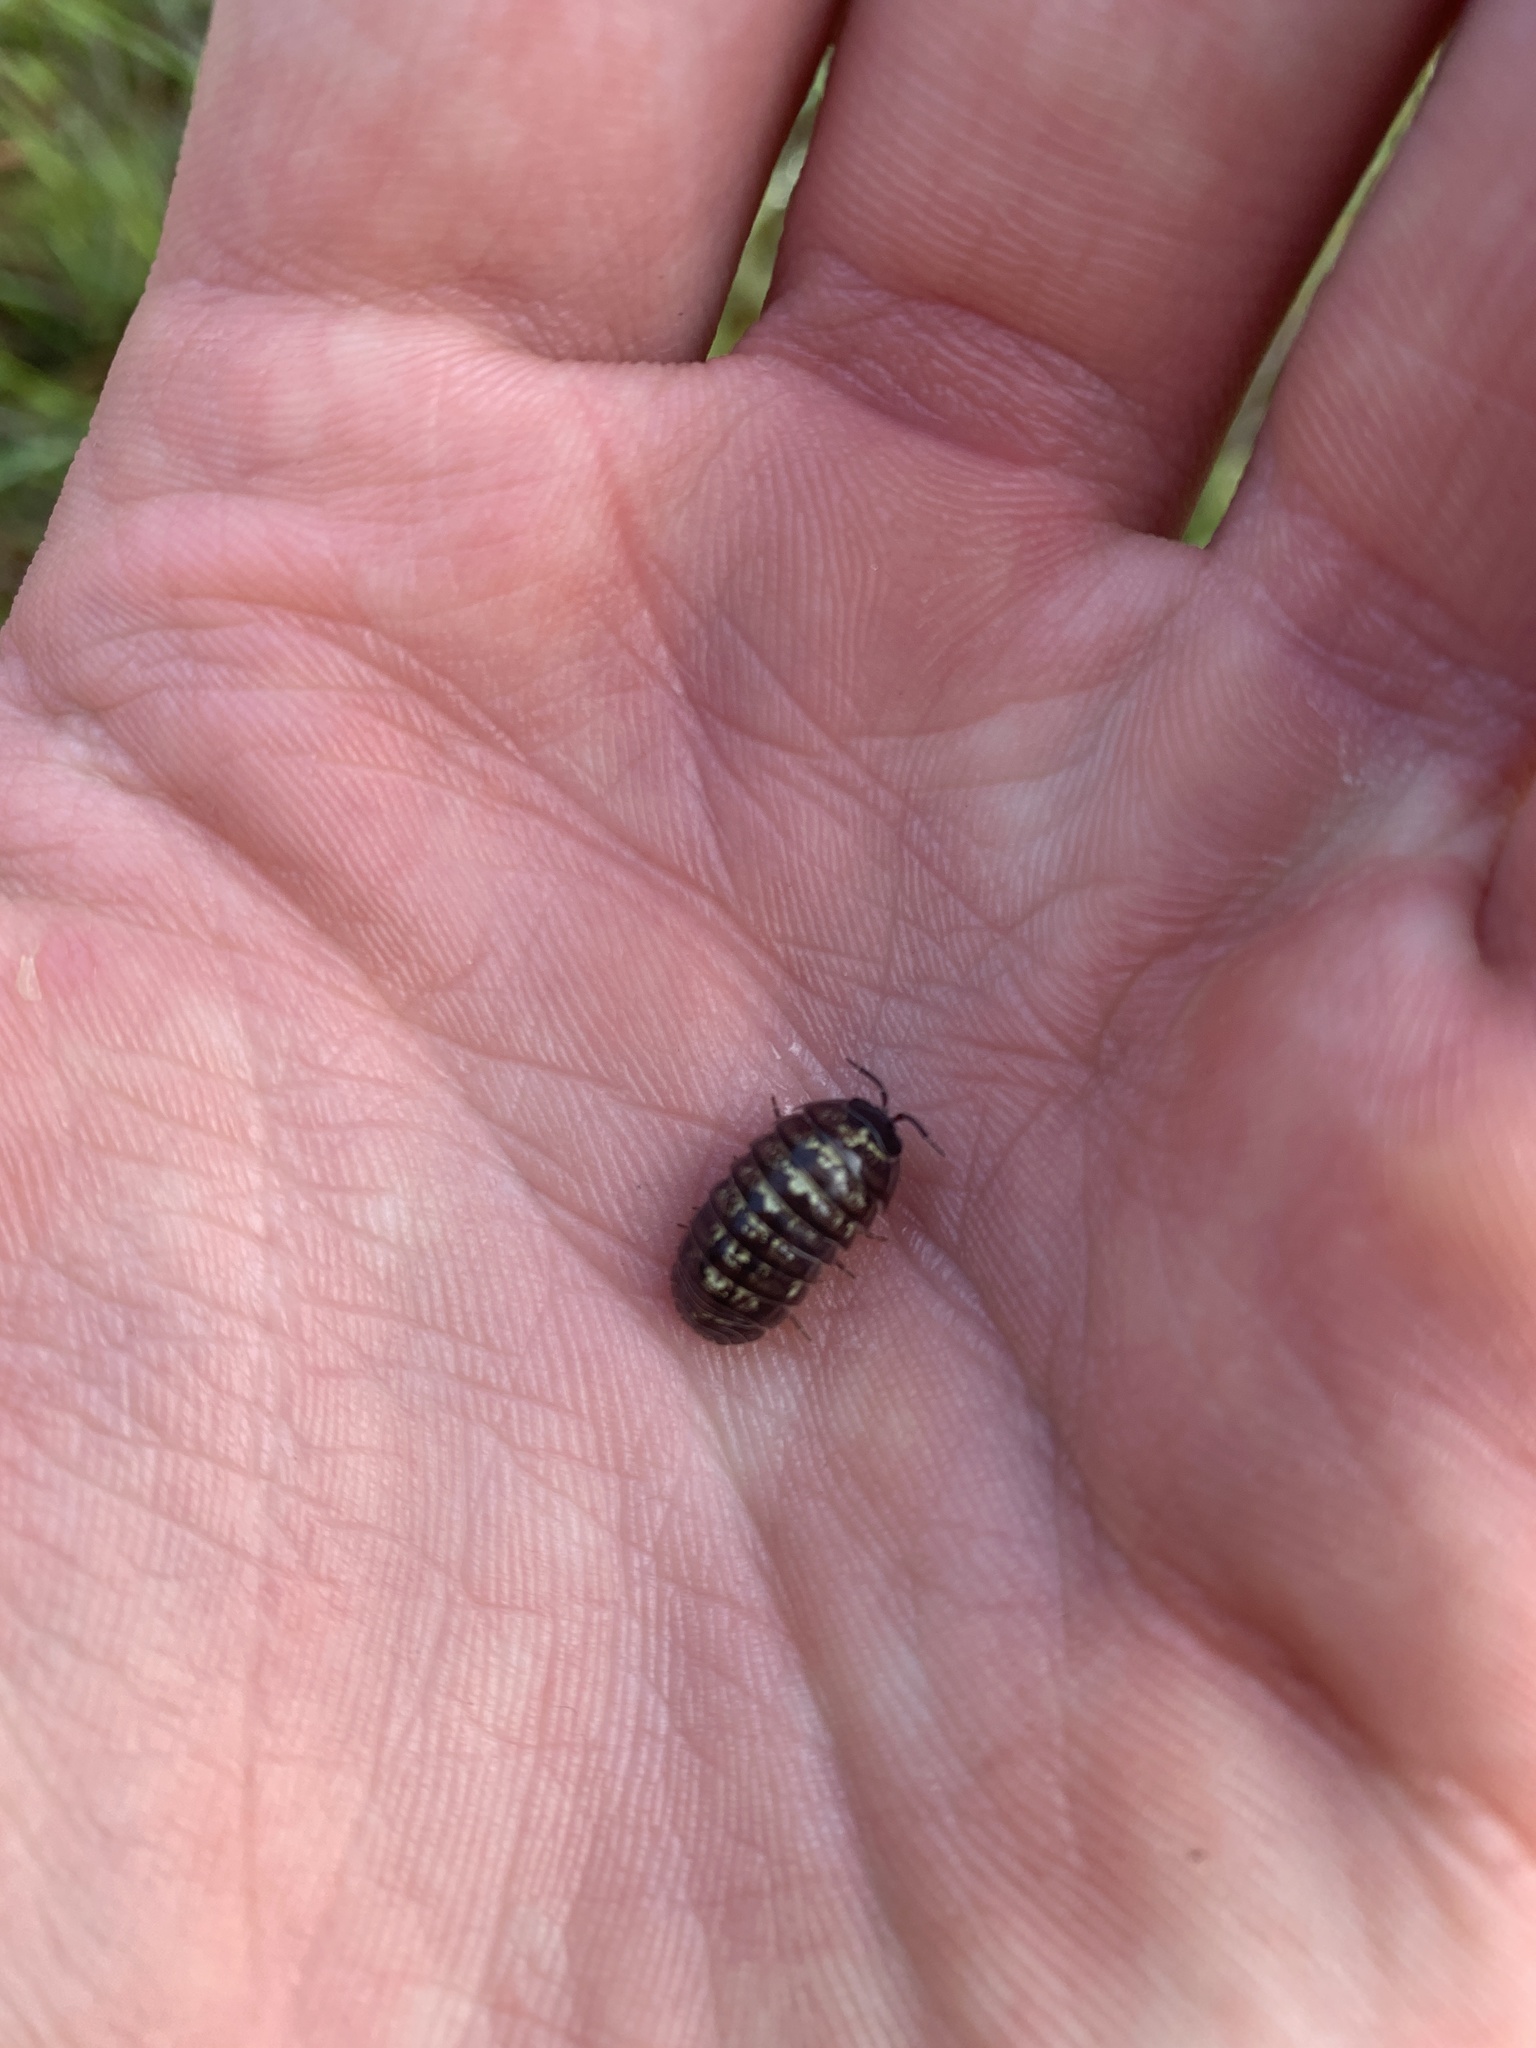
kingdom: Animalia
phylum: Arthropoda
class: Malacostraca
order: Isopoda
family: Armadillidiidae
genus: Armadillidium
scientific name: Armadillidium vulgare
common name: Common pill woodlouse
